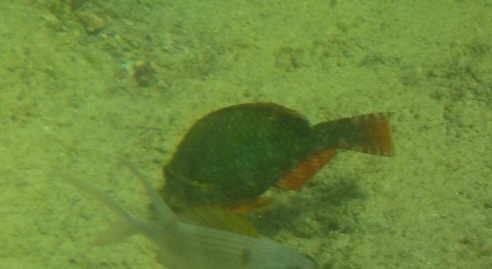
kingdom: Animalia
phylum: Chordata
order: Perciformes
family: Scaridae
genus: Sparisoma
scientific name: Sparisoma aurofrenatum
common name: Redband parrotfish
